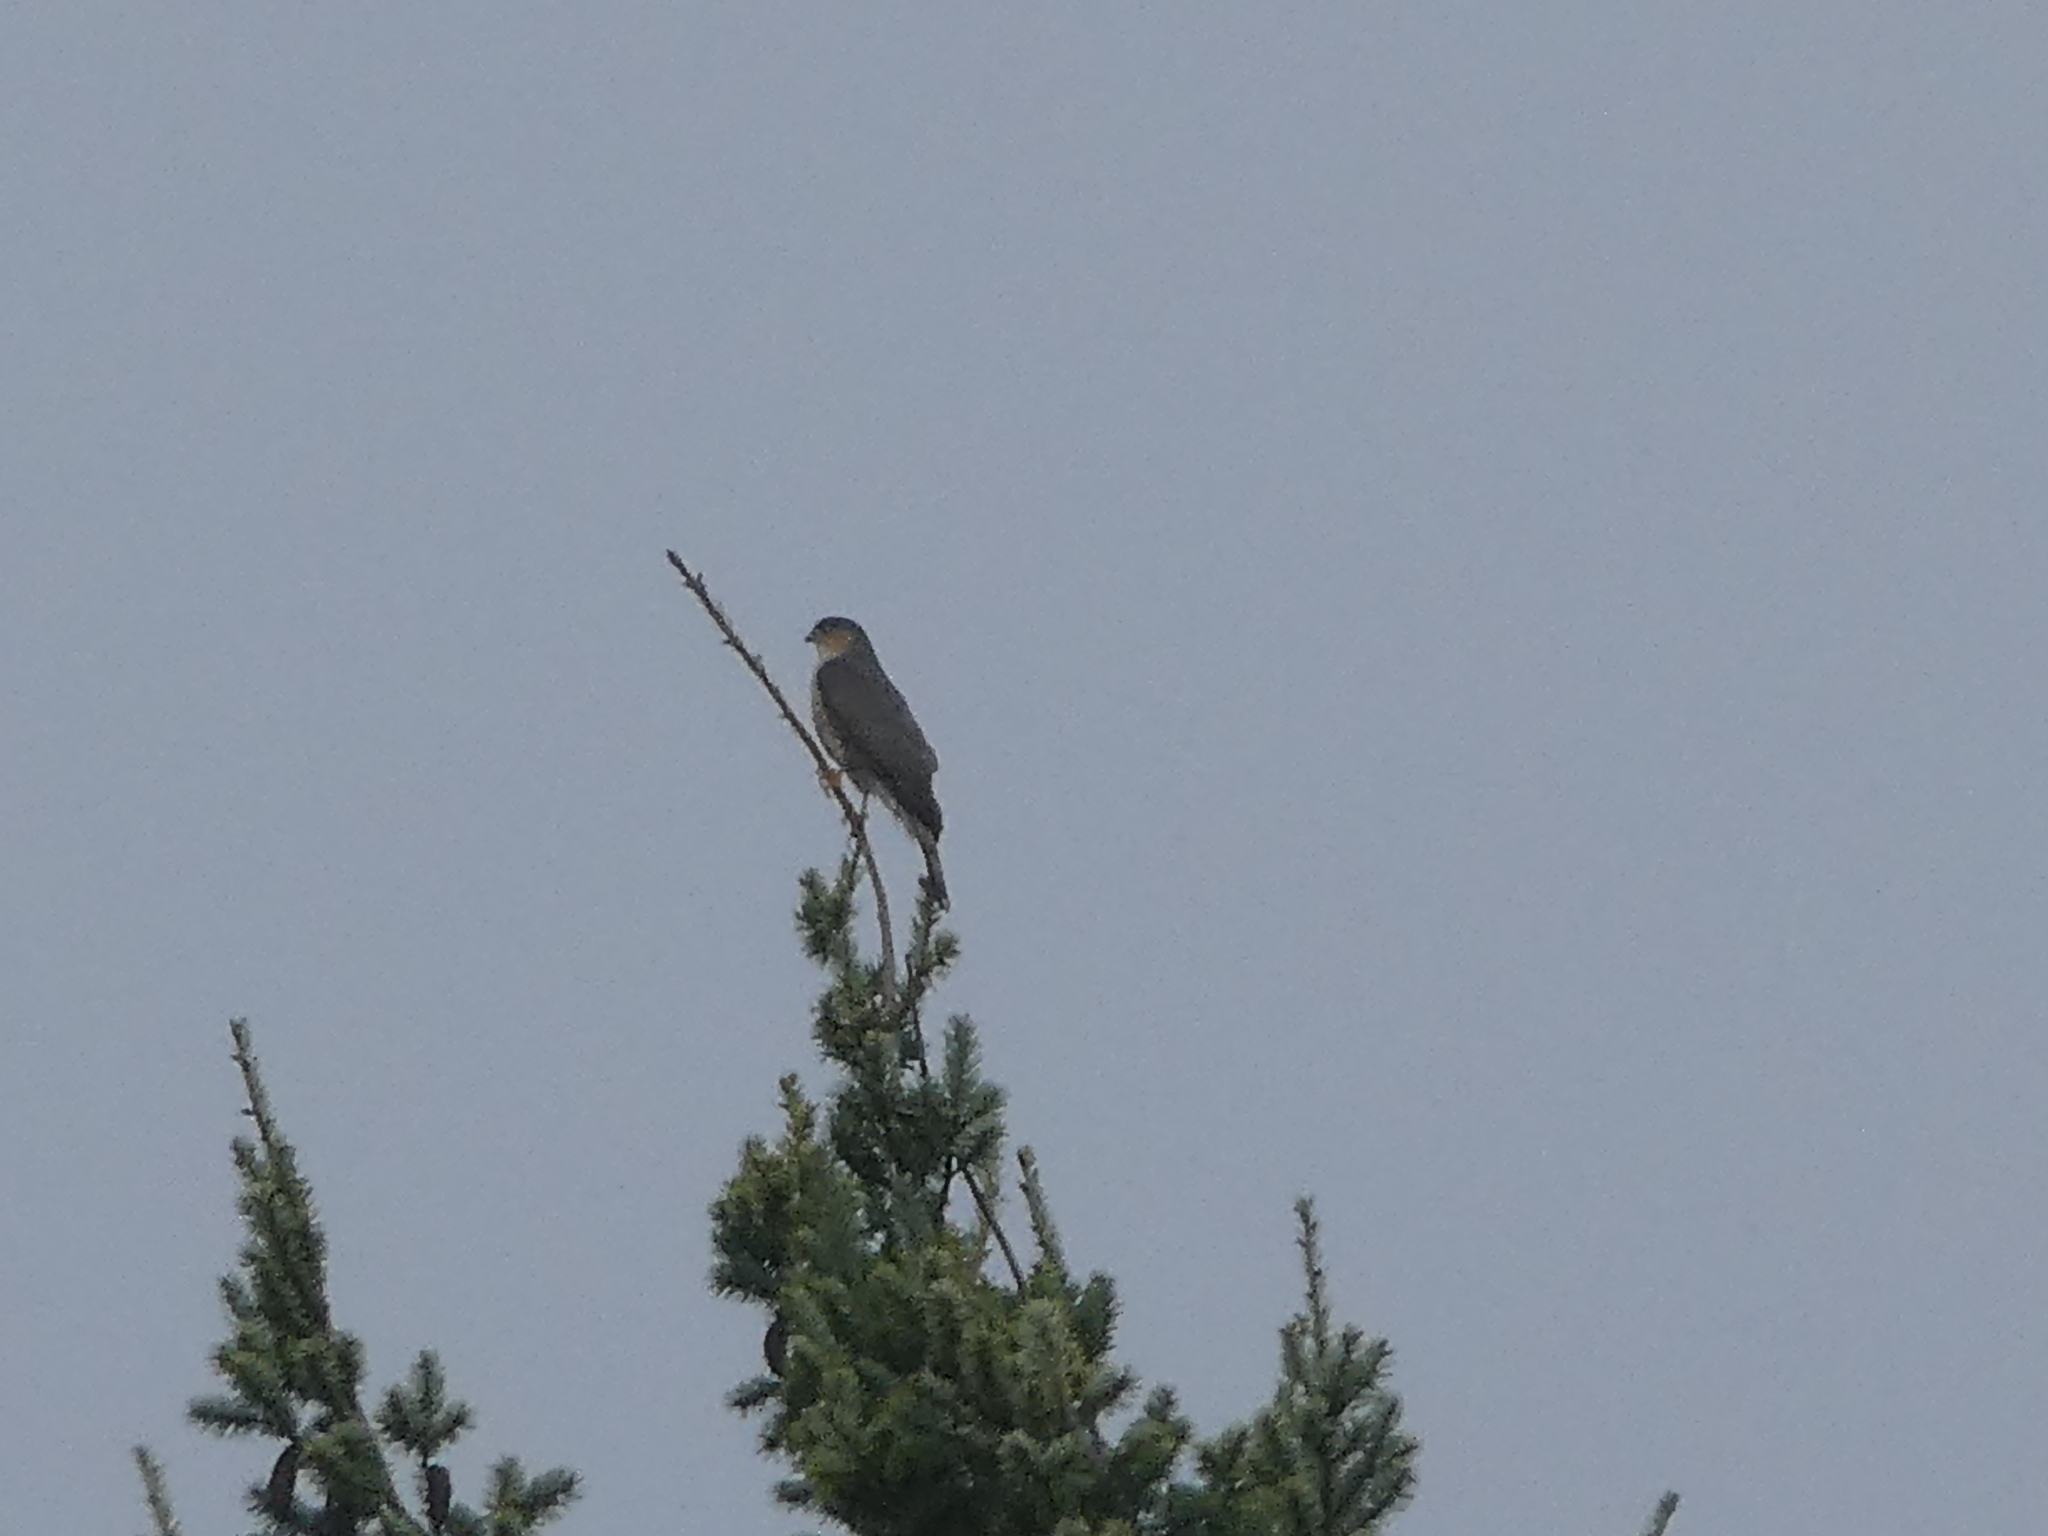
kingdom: Animalia
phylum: Chordata
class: Aves
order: Accipitriformes
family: Accipitridae
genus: Accipiter
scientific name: Accipiter striatus
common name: Sharp-shinned hawk
